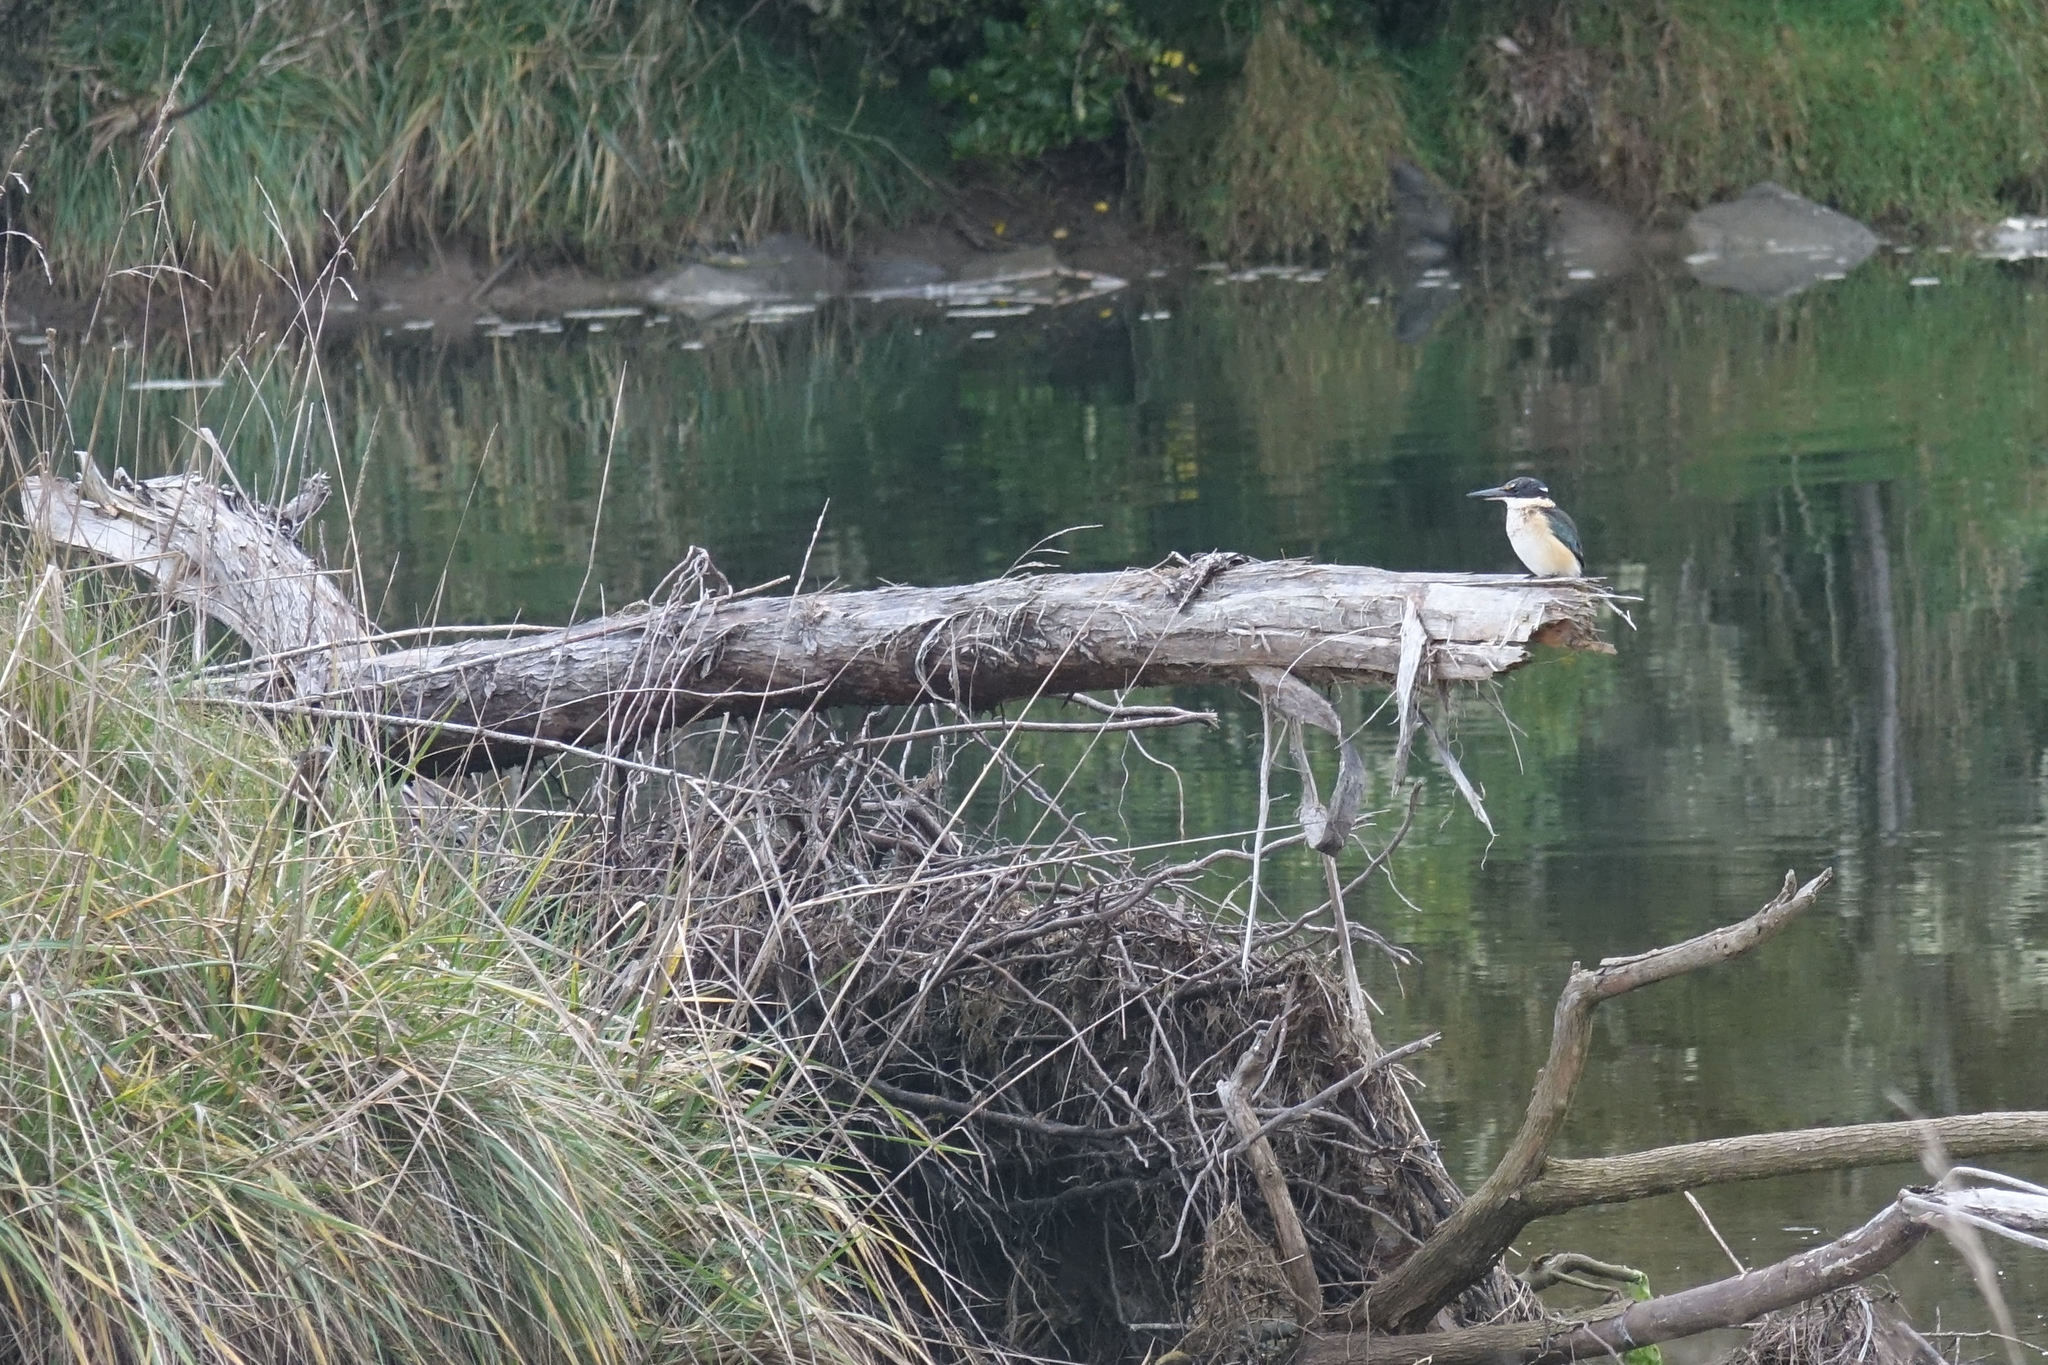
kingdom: Animalia
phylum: Chordata
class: Aves
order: Coraciiformes
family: Alcedinidae
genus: Todiramphus
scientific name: Todiramphus sanctus
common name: Sacred kingfisher
